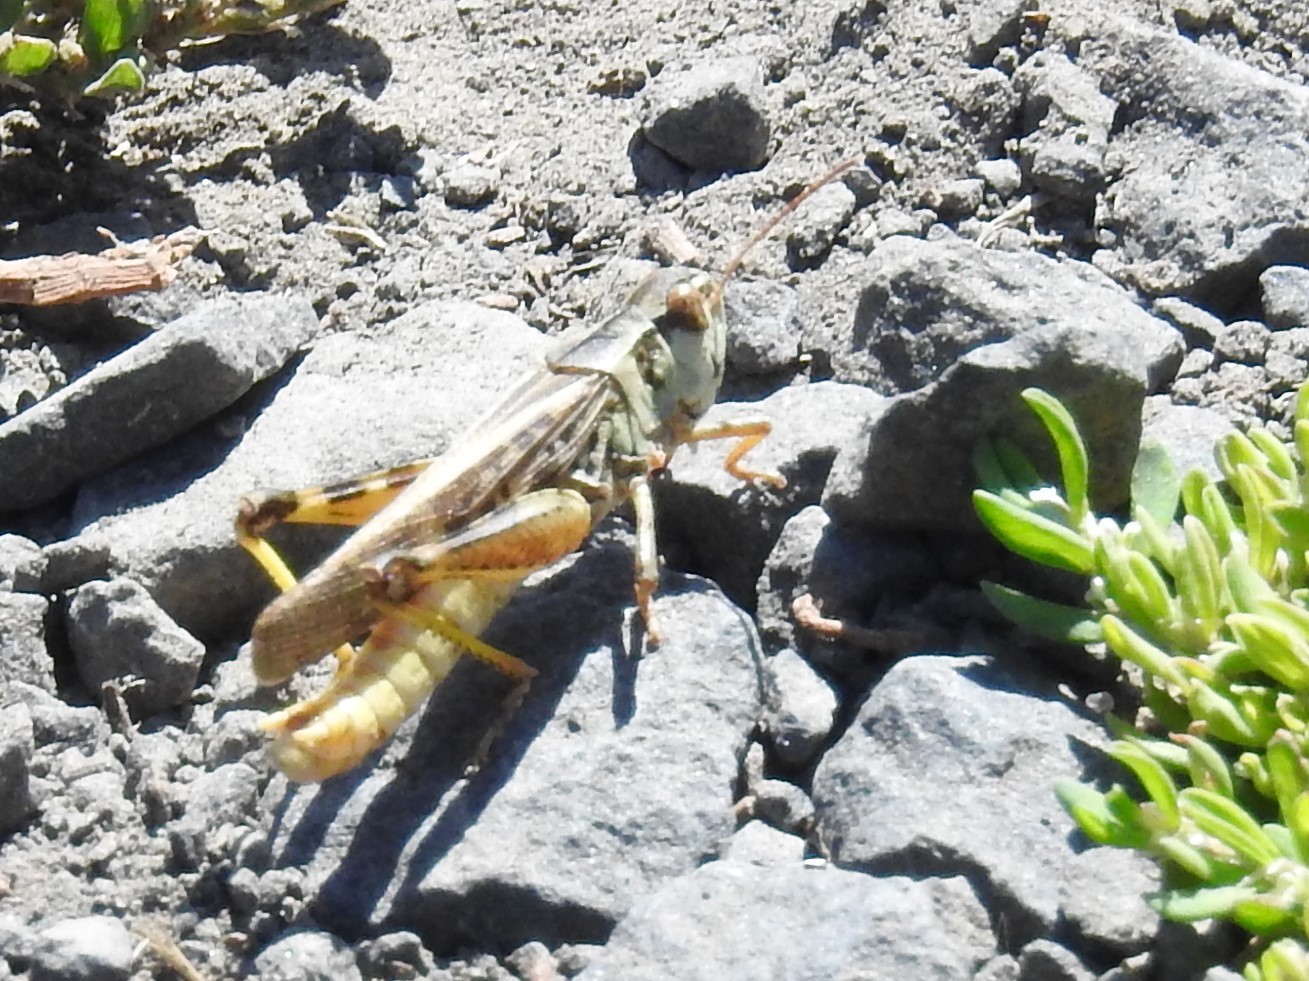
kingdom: Animalia
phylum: Arthropoda
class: Insecta
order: Orthoptera
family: Acrididae
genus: Camnula
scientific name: Camnula pellucida
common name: Clear-winged grasshopper
